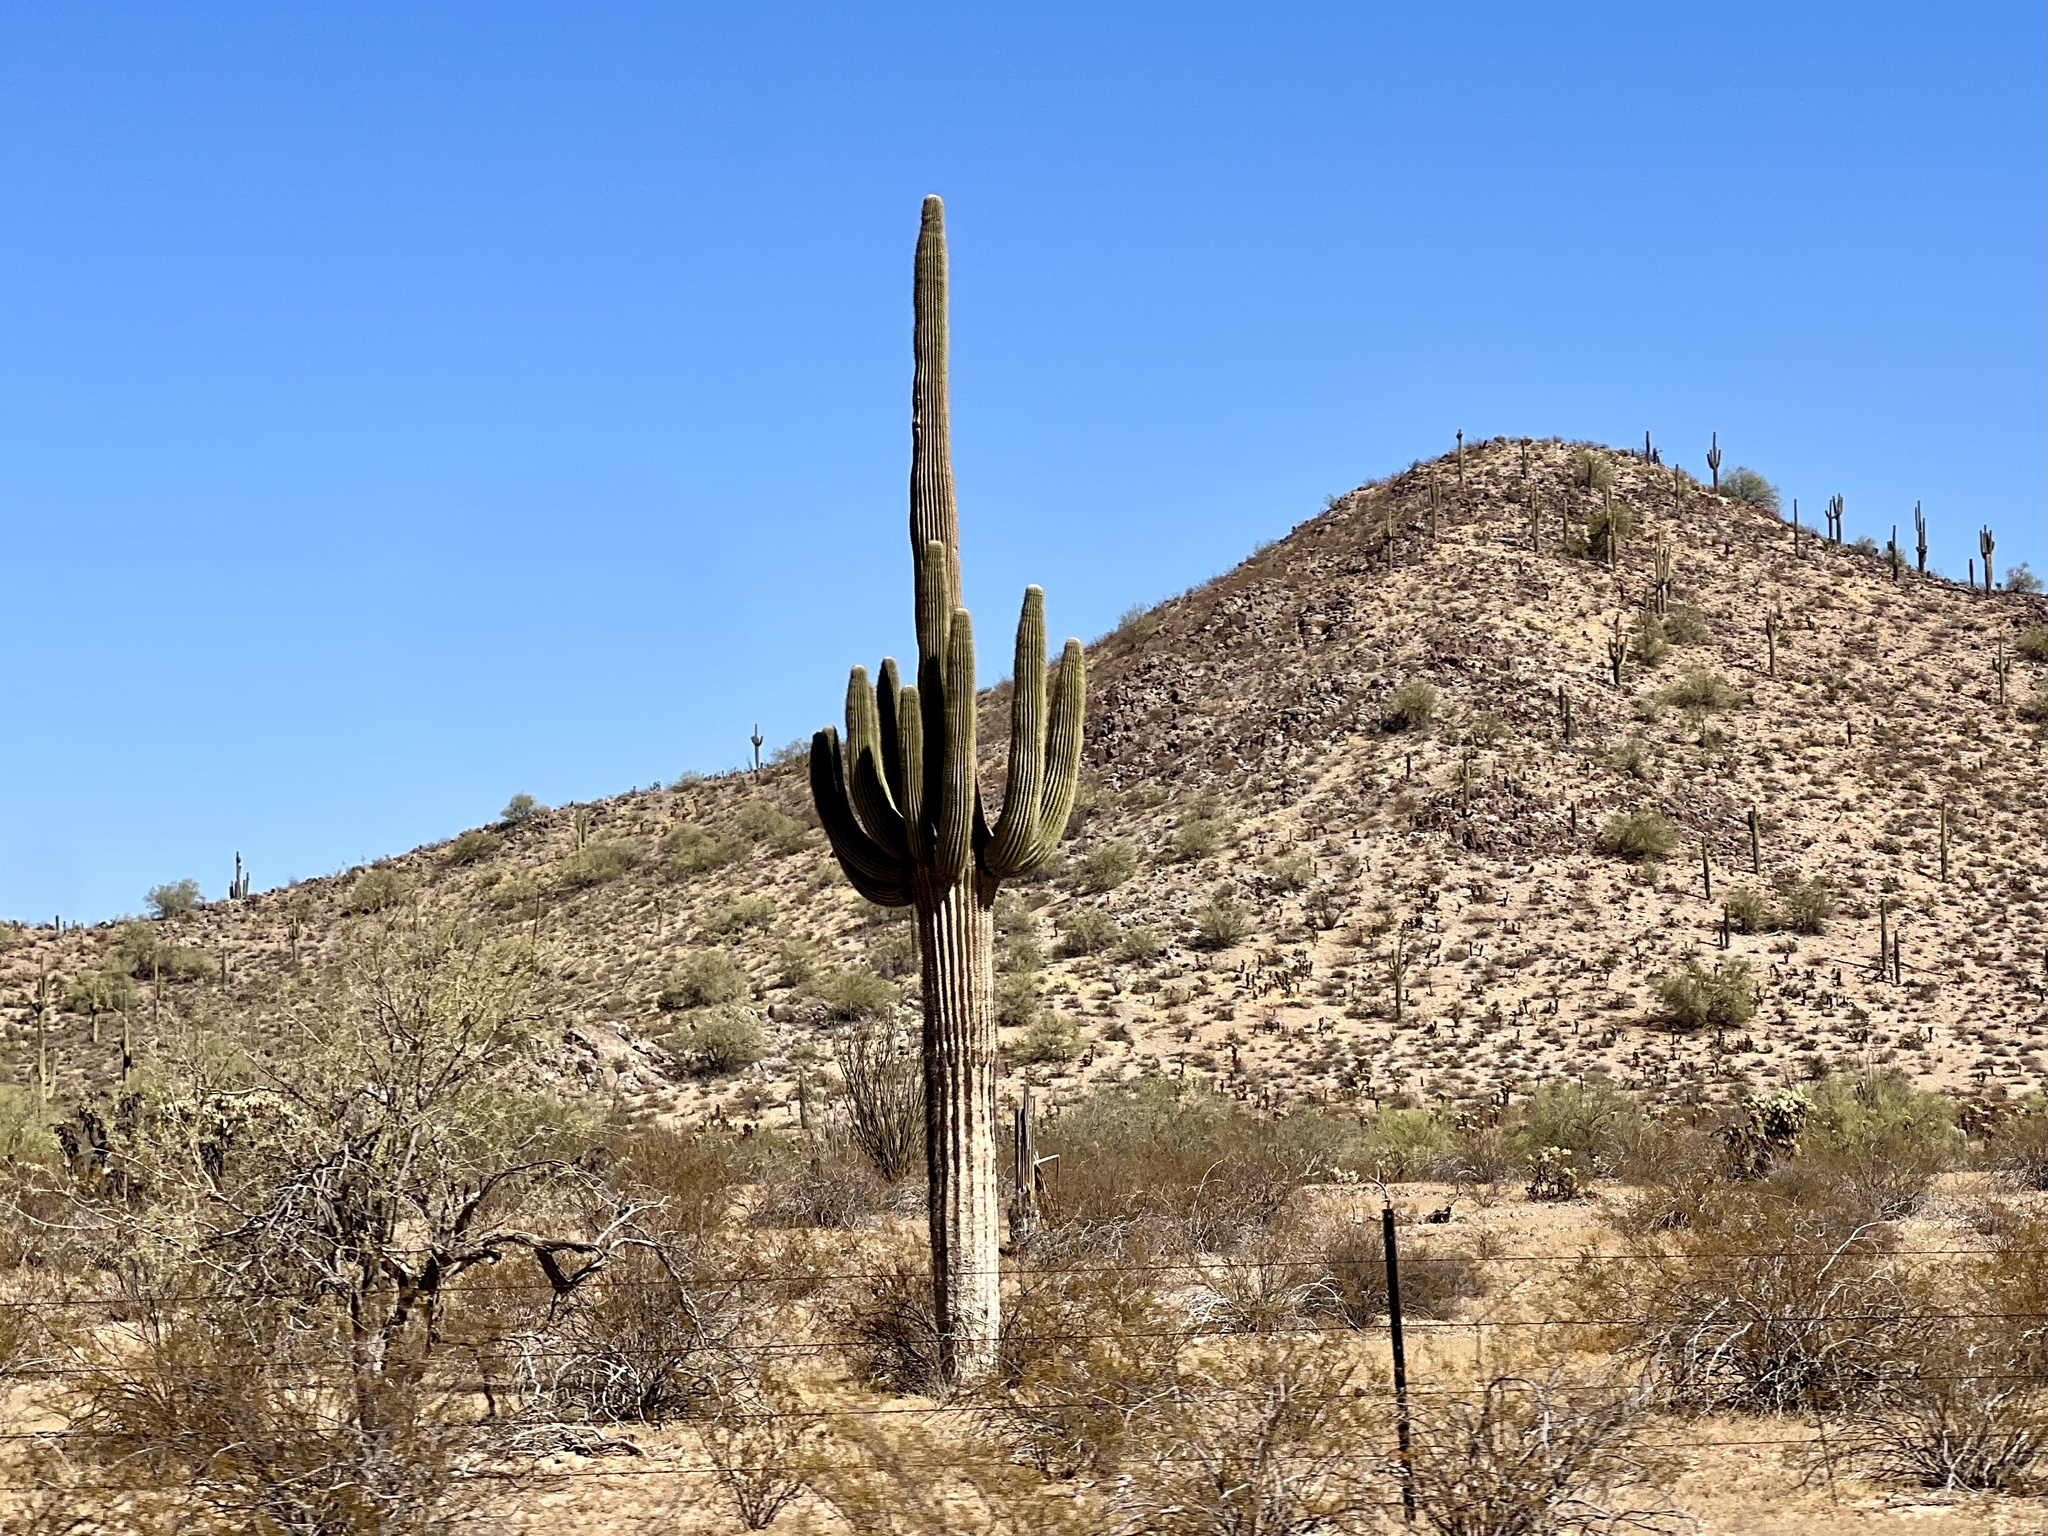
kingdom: Plantae
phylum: Tracheophyta
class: Magnoliopsida
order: Caryophyllales
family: Cactaceae
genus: Carnegiea
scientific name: Carnegiea gigantea
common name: Saguaro
